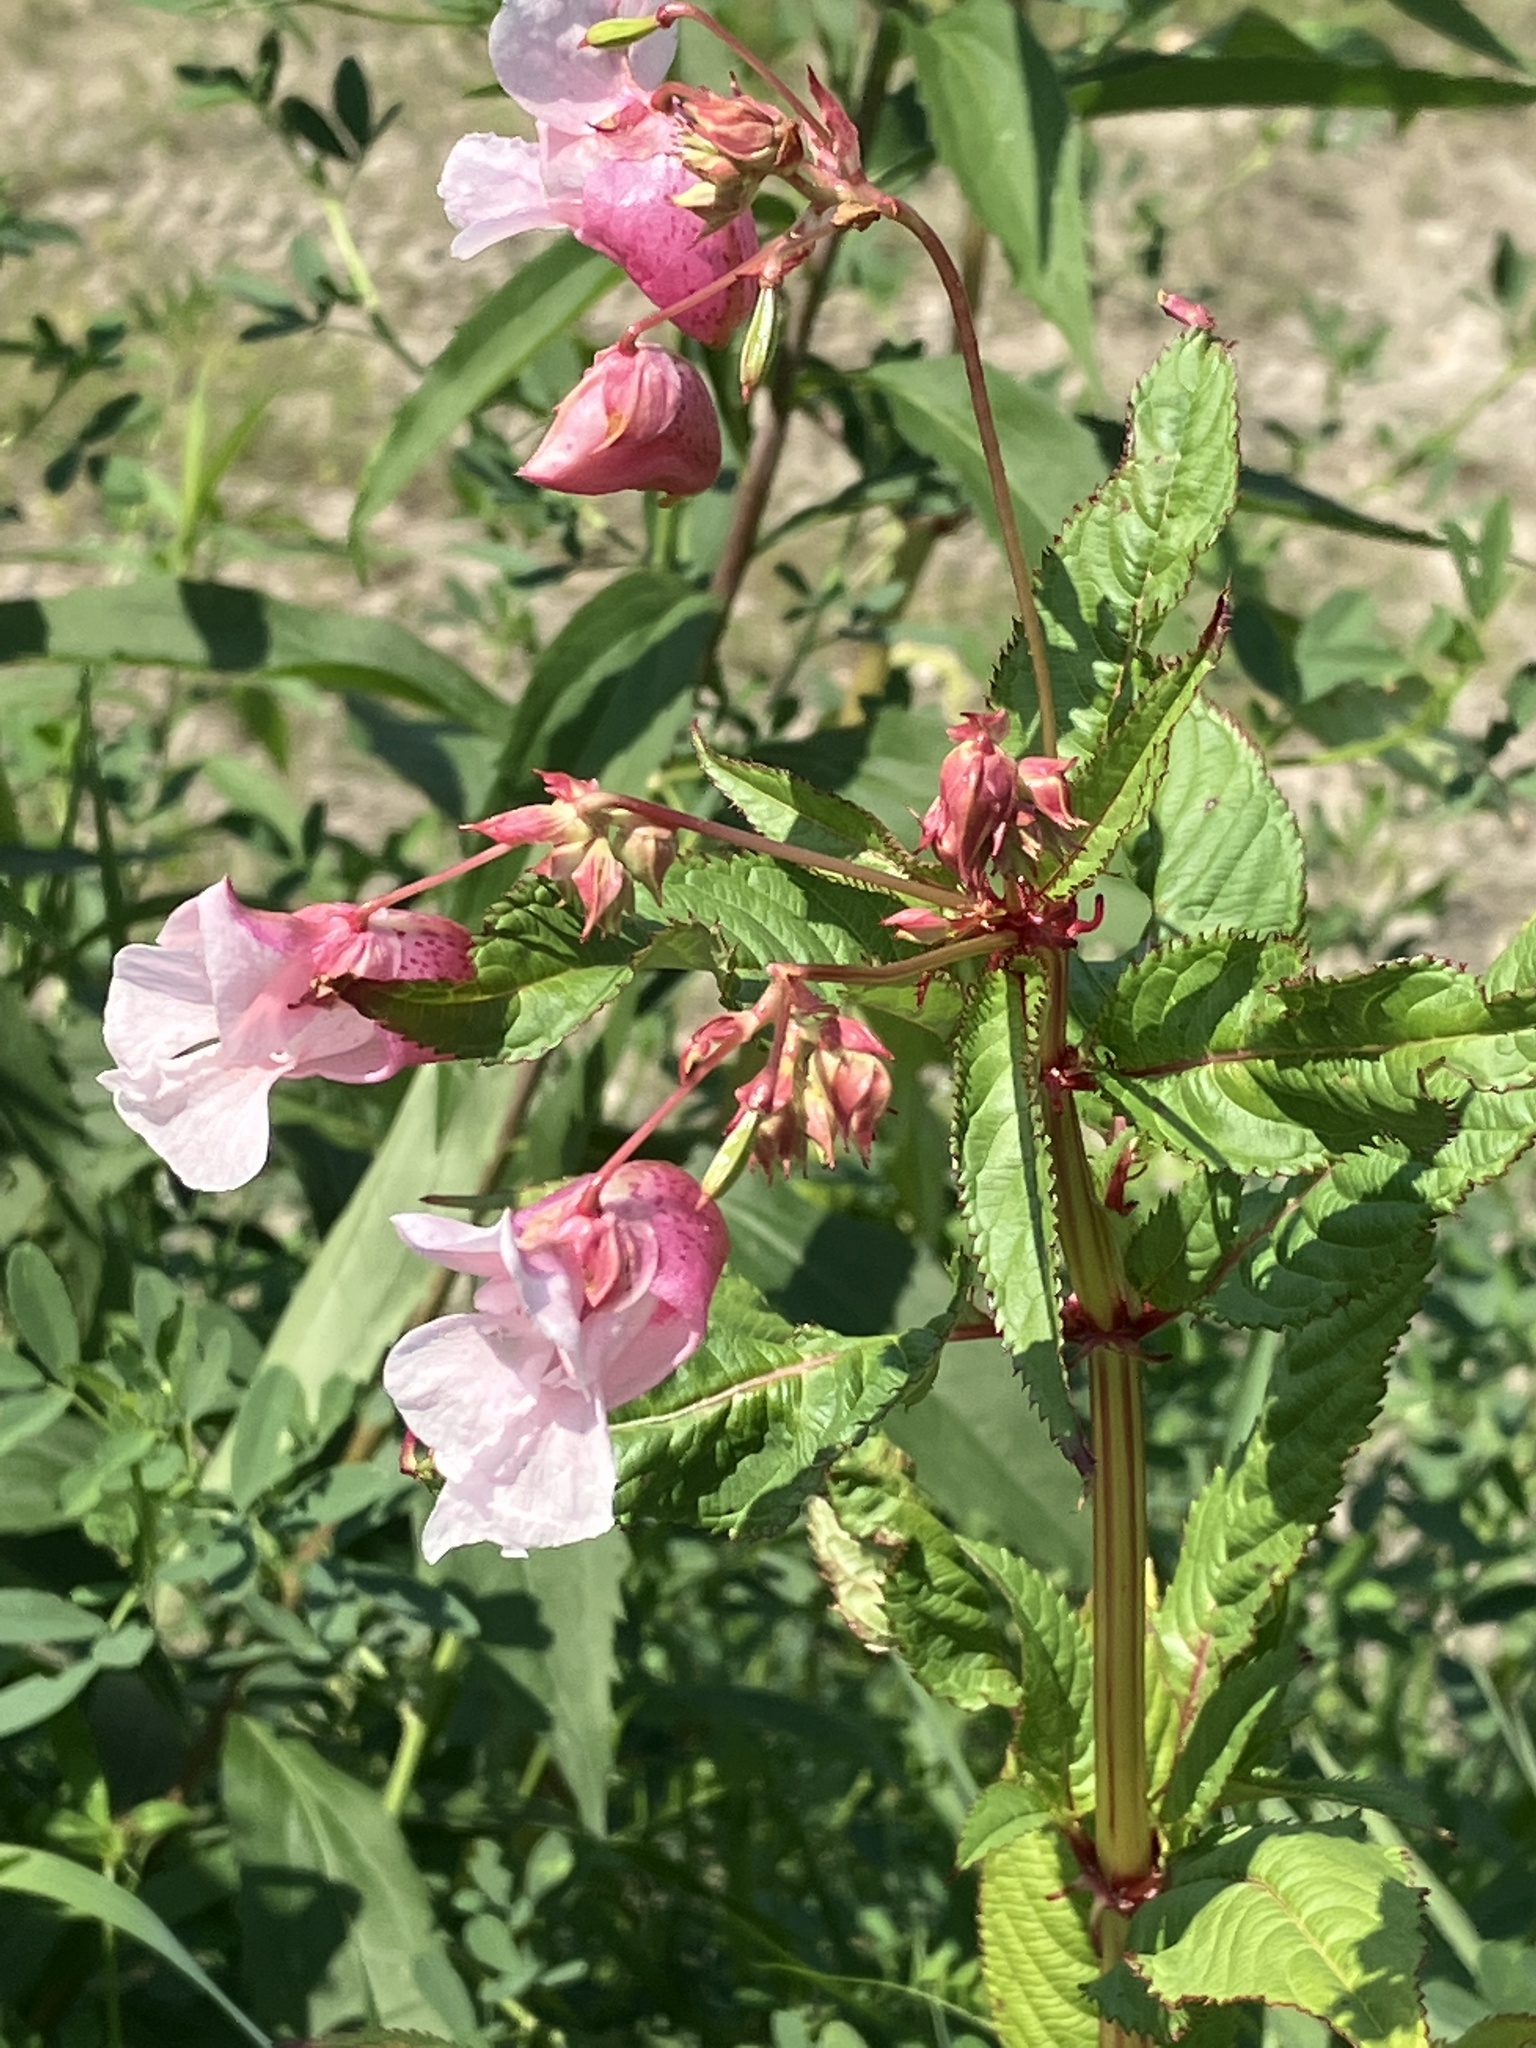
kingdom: Plantae
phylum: Tracheophyta
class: Magnoliopsida
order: Ericales
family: Balsaminaceae
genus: Impatiens
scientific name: Impatiens glandulifera
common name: Himalayan balsam
